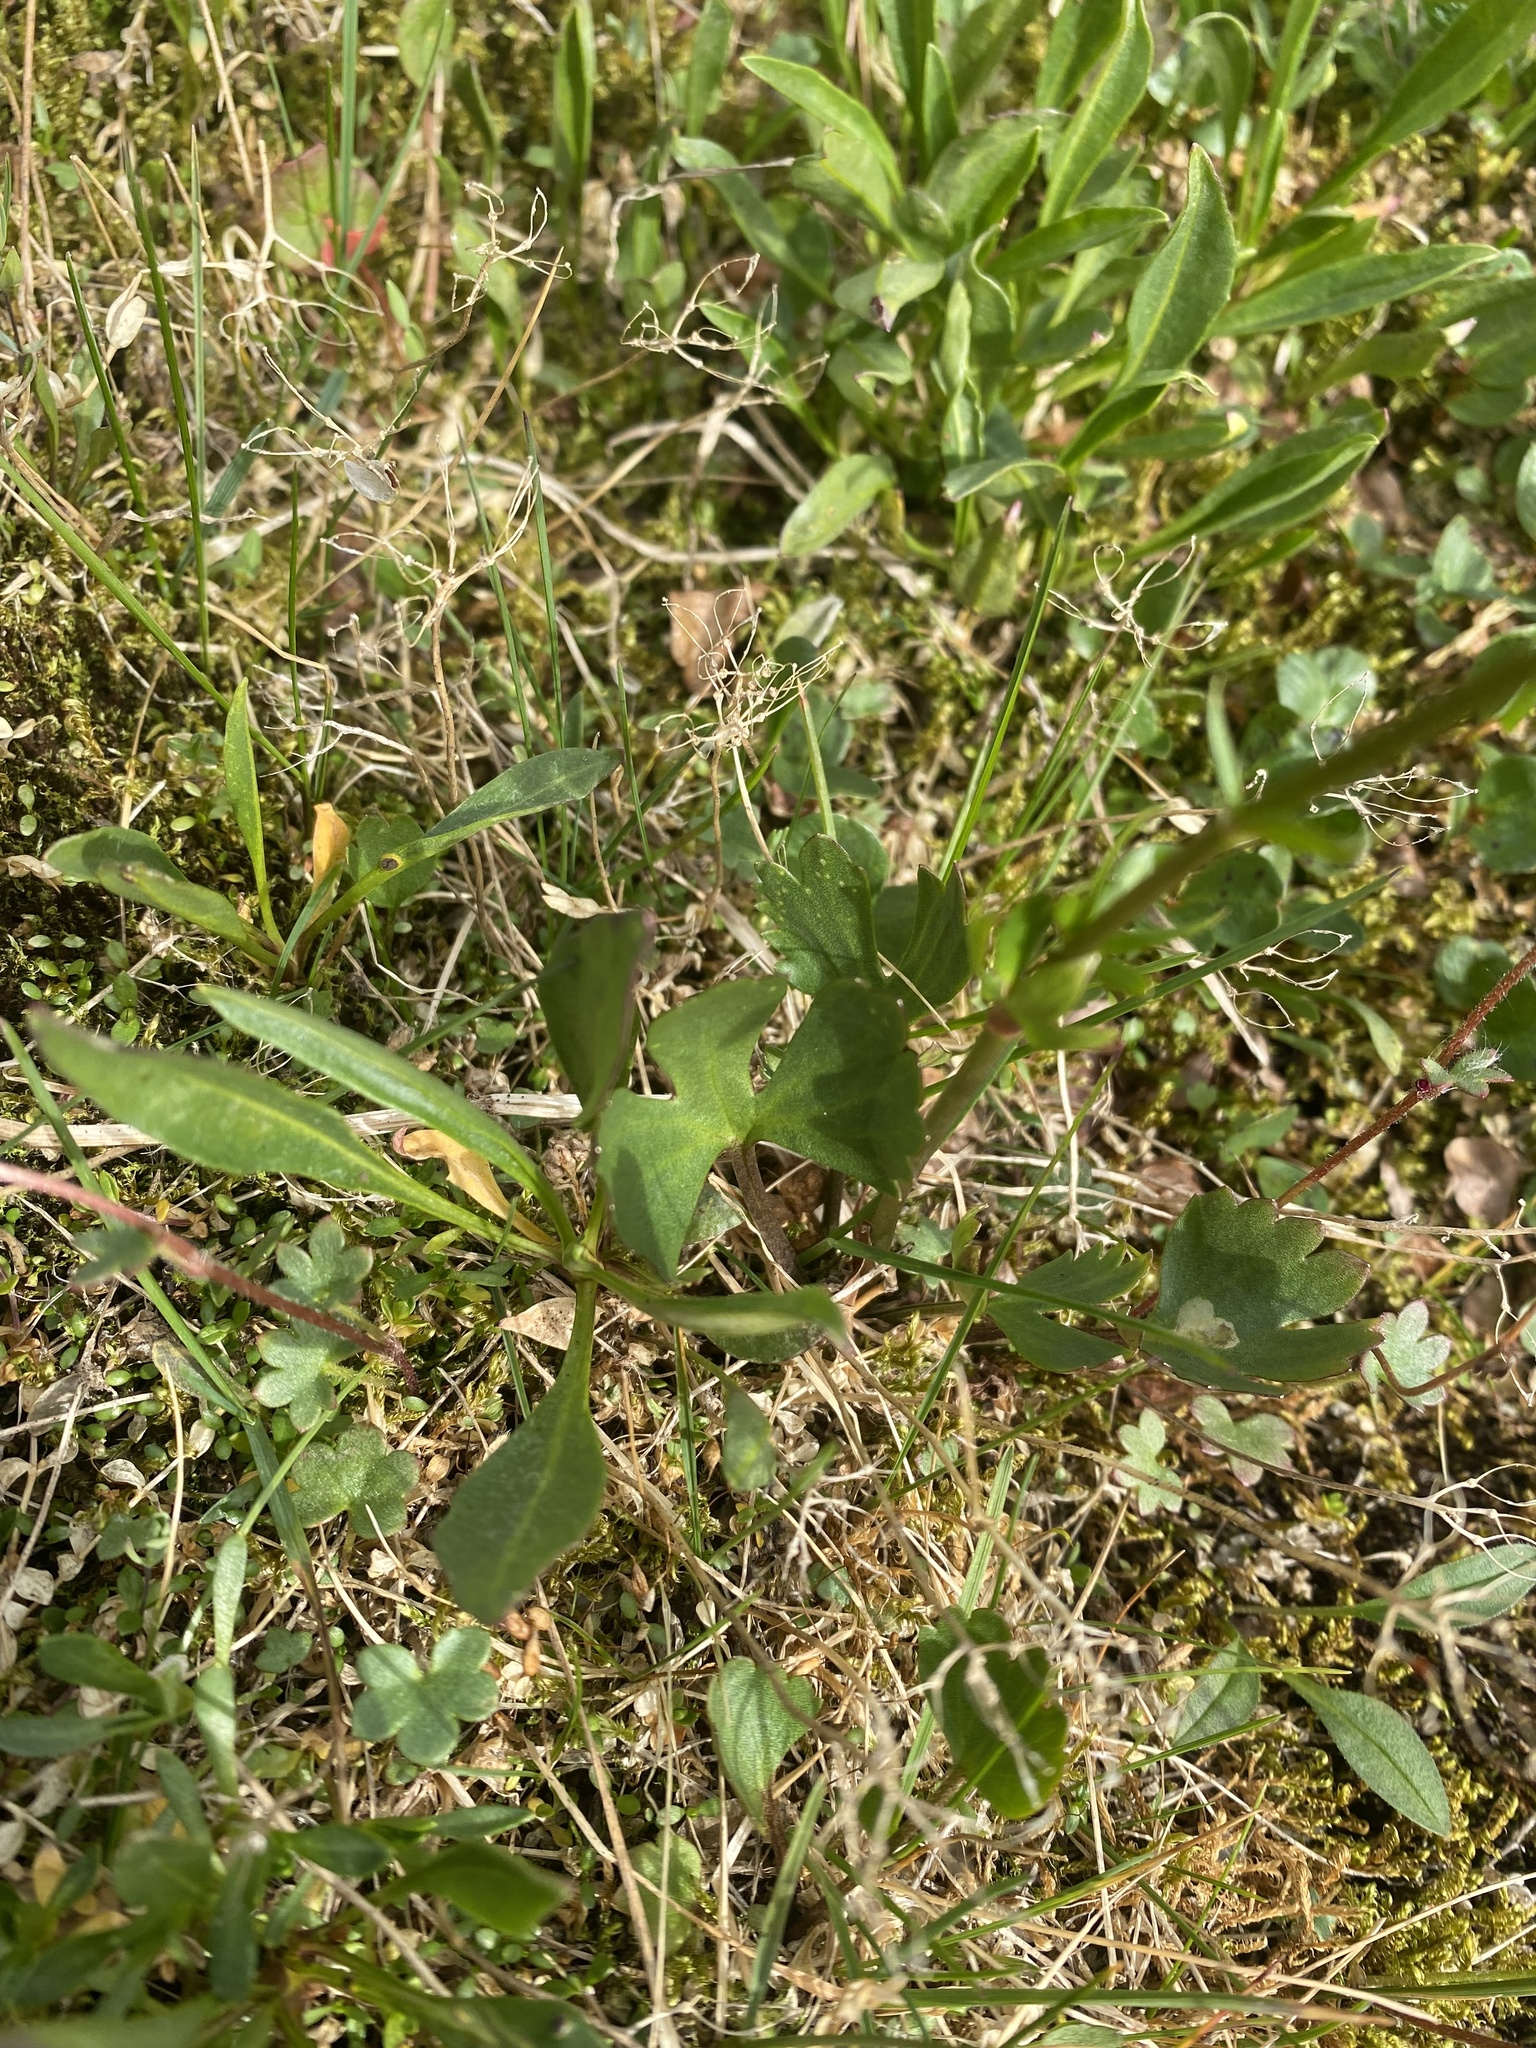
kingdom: Plantae
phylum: Tracheophyta
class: Magnoliopsida
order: Ranunculales
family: Ranunculaceae
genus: Ranunculus
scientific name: Ranunculus sulphureus
